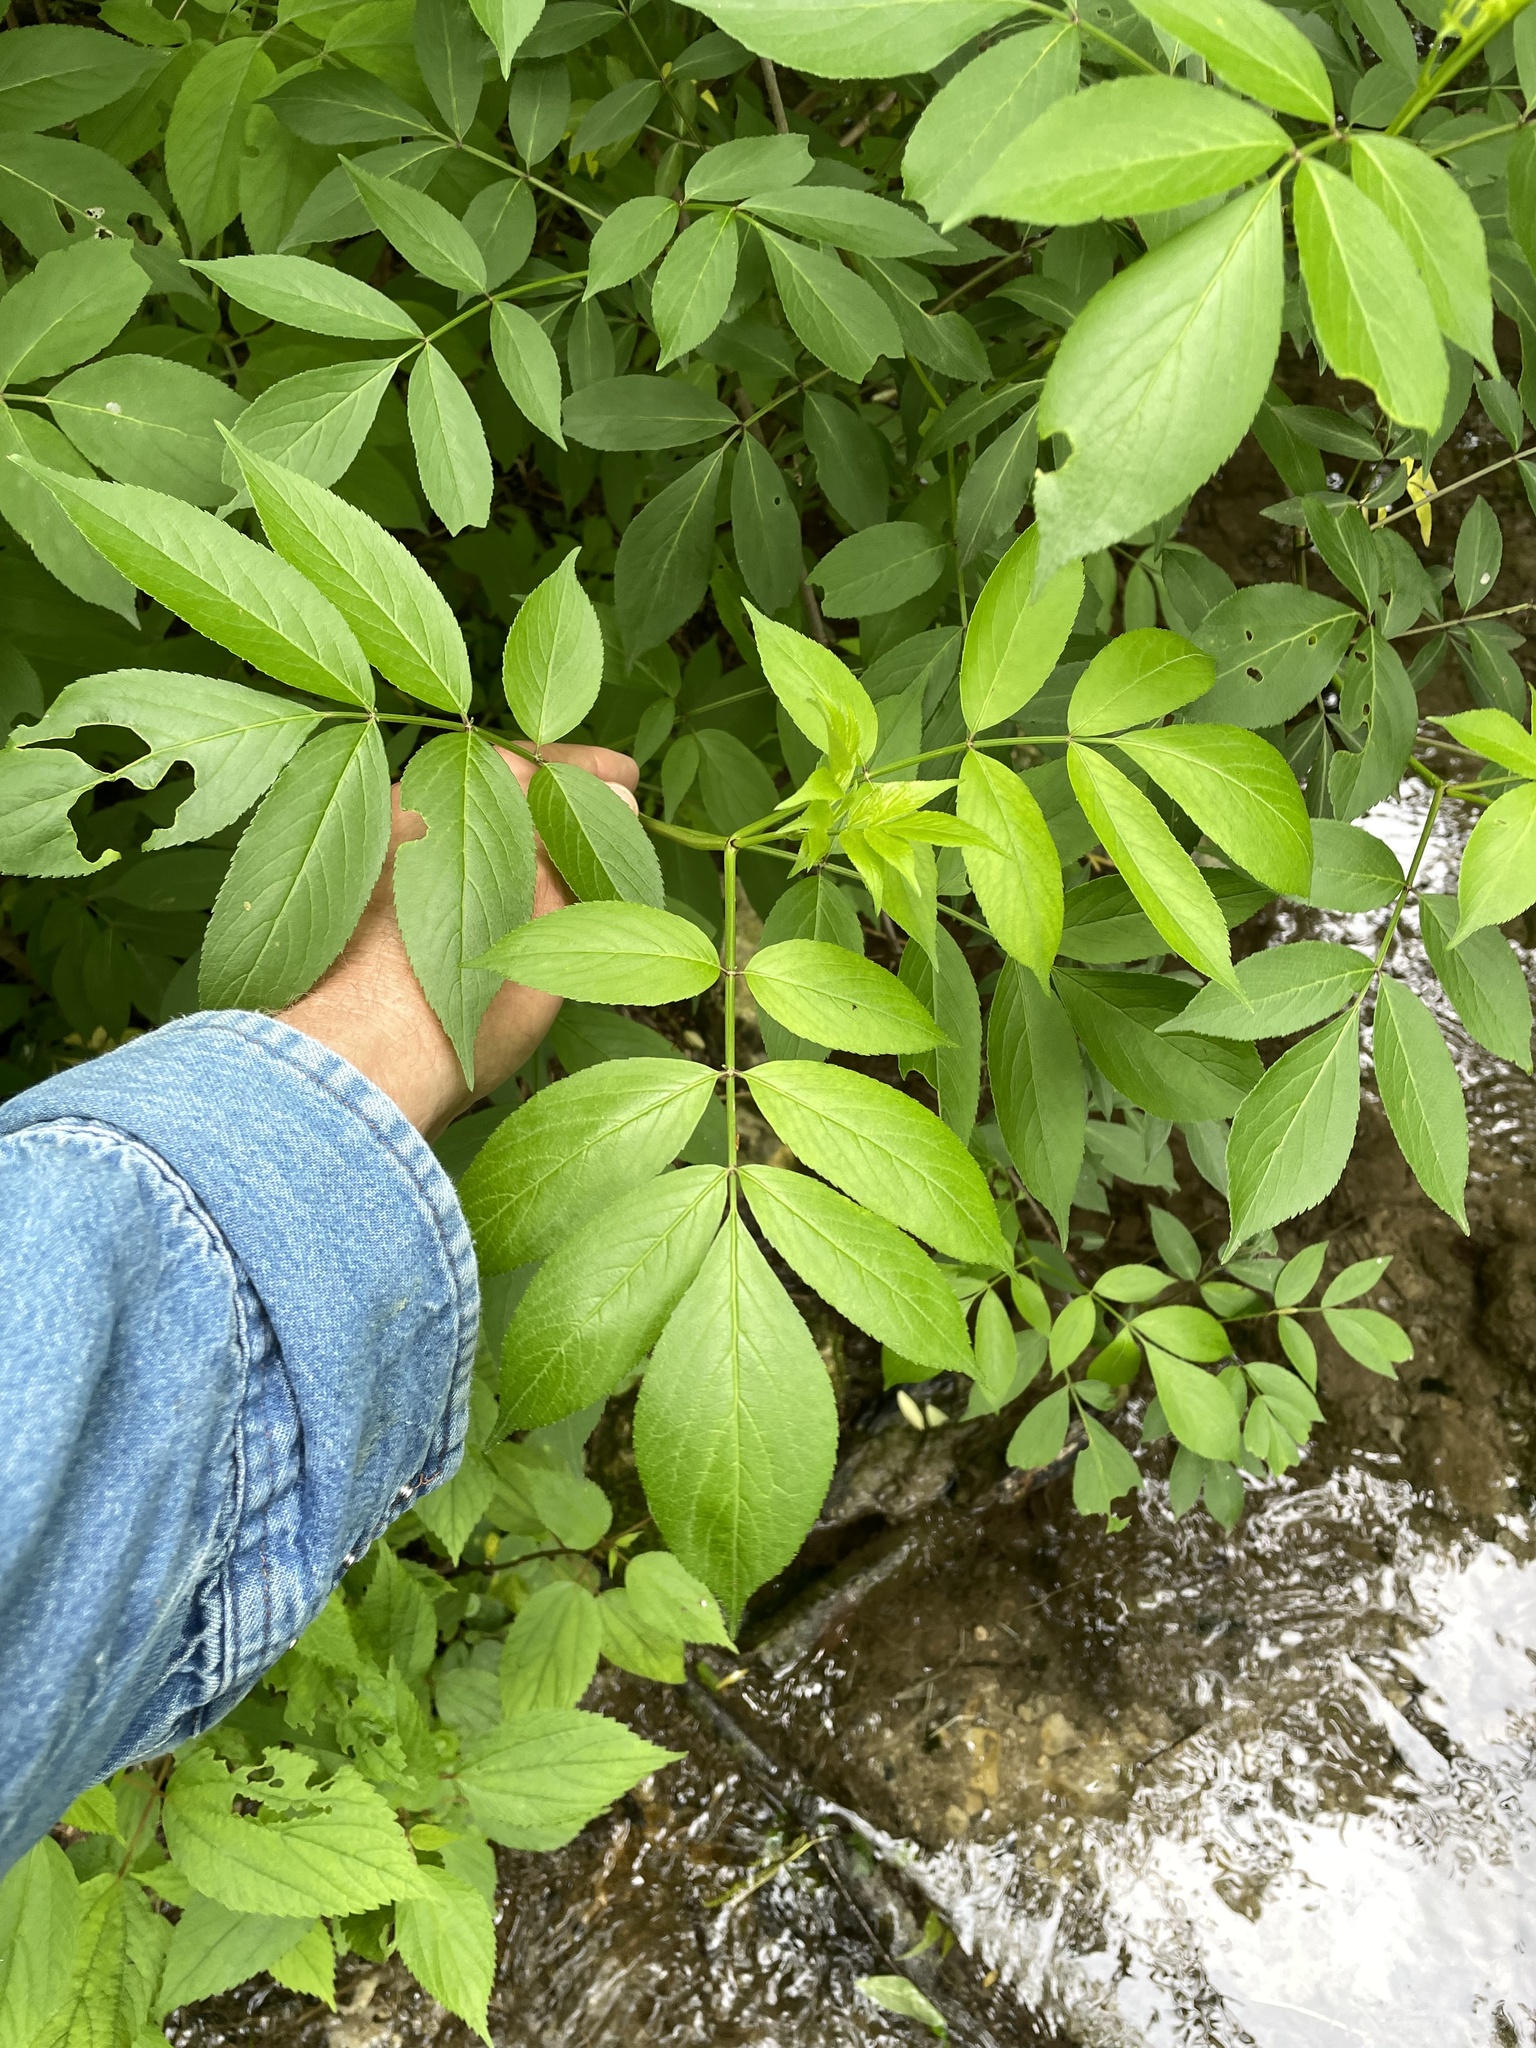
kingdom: Plantae
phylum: Tracheophyta
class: Magnoliopsida
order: Dipsacales
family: Viburnaceae
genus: Sambucus
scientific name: Sambucus canadensis
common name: American elder
